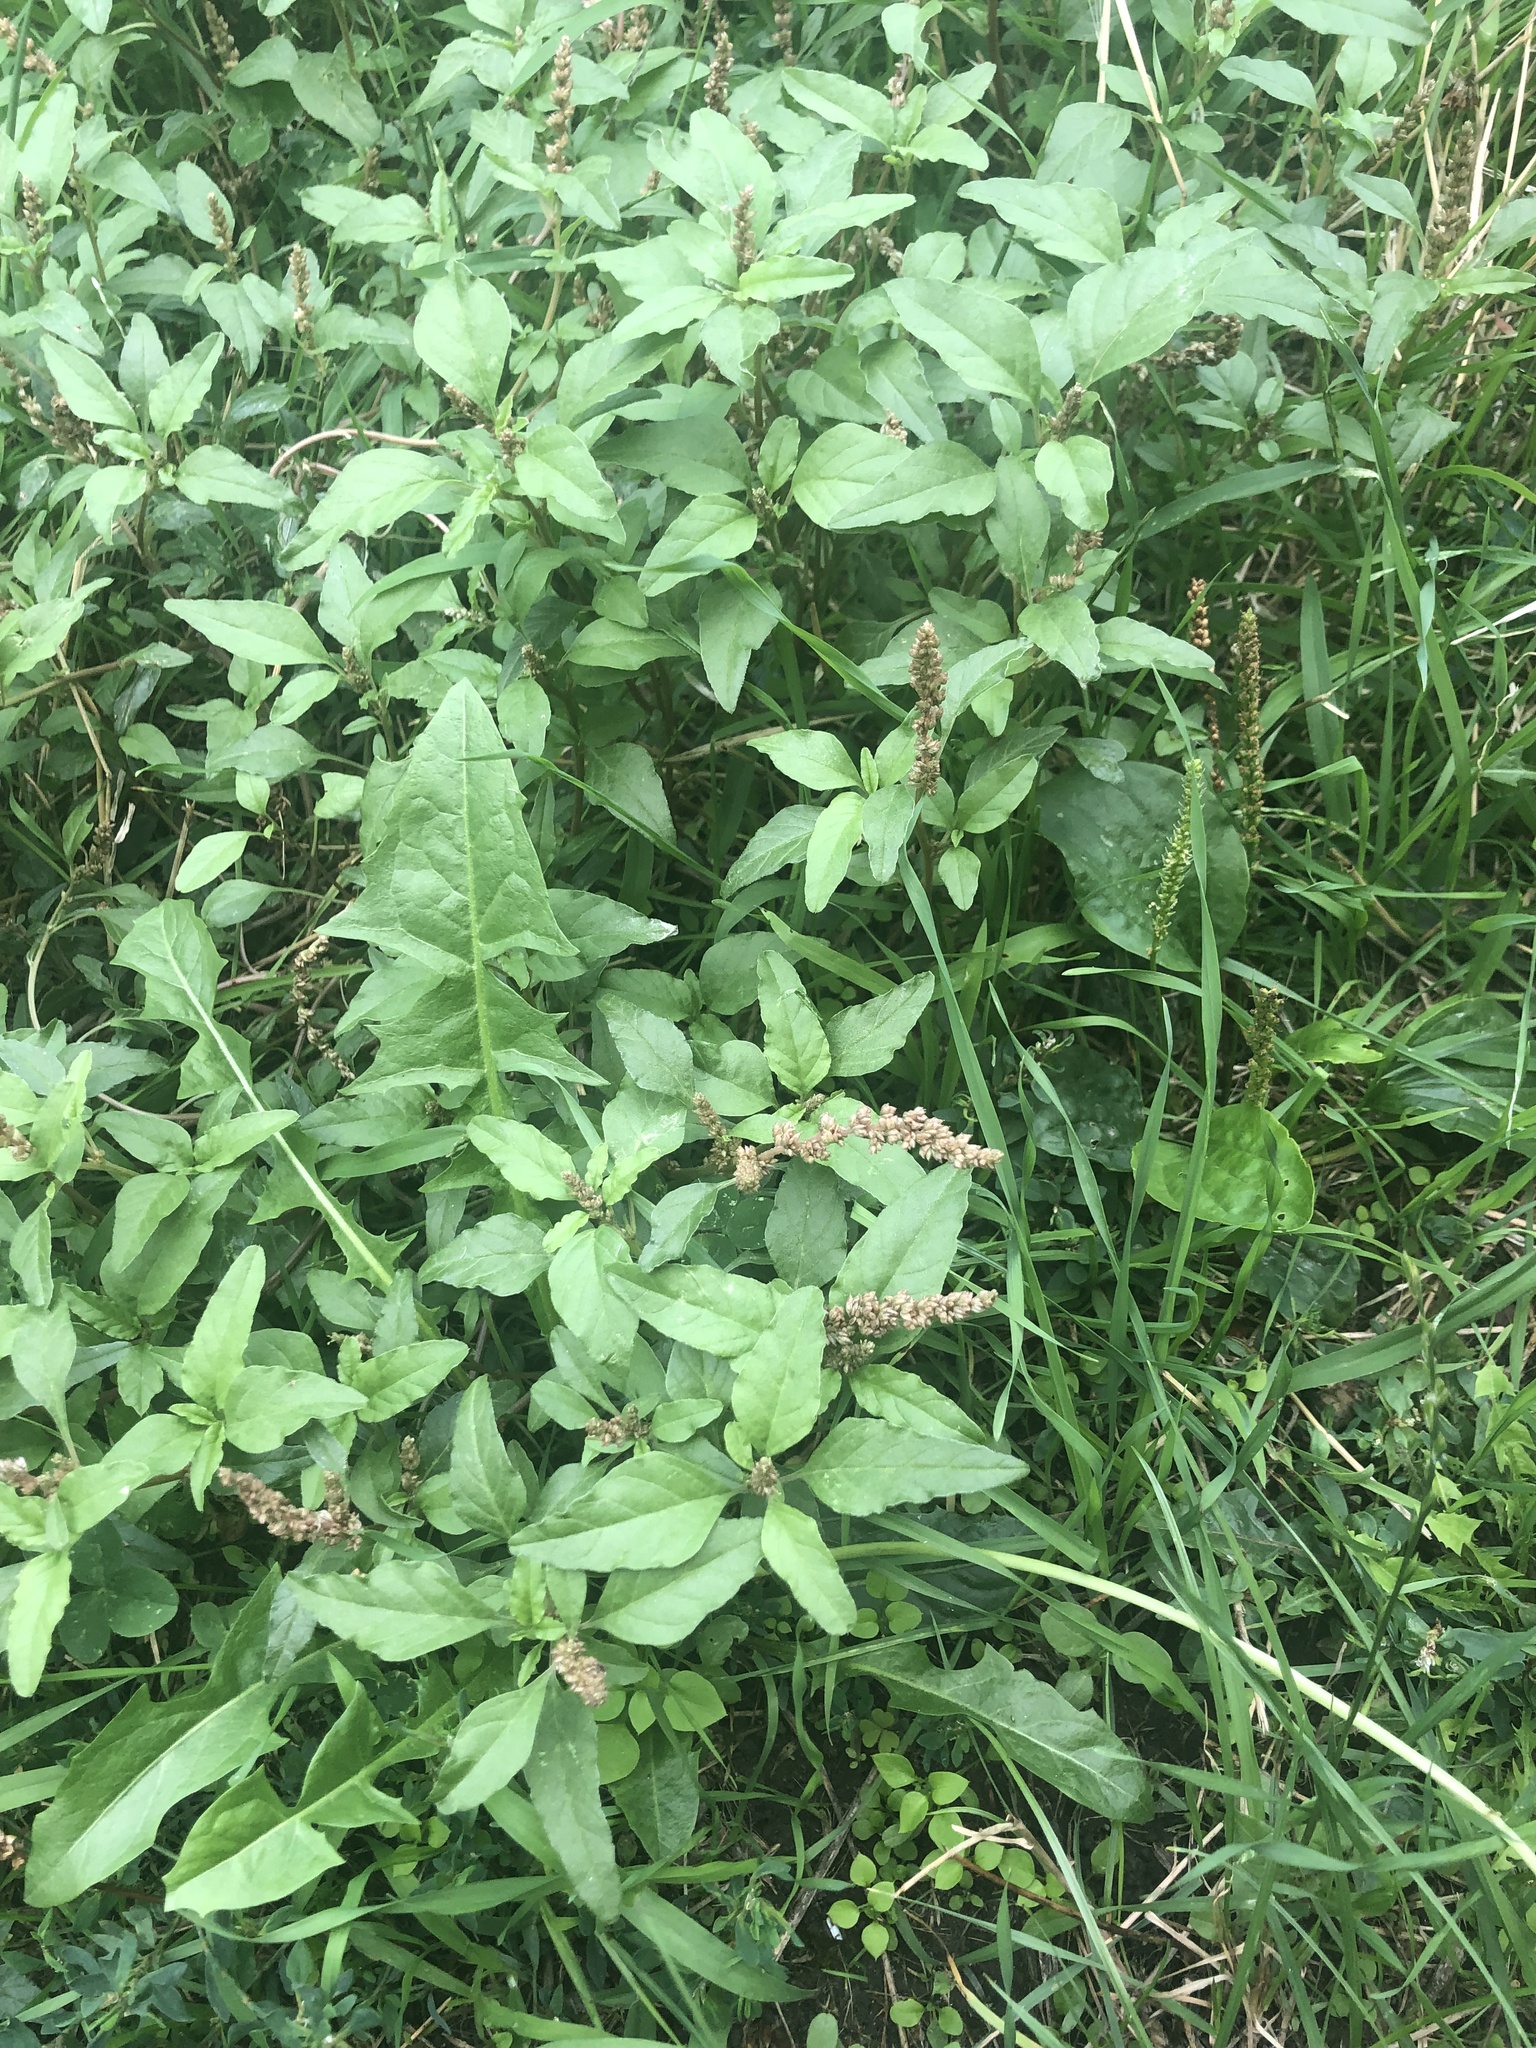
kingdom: Plantae
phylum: Tracheophyta
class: Magnoliopsida
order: Caryophyllales
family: Amaranthaceae
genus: Amaranthus
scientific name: Amaranthus deflexus
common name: Perennial pigweed
